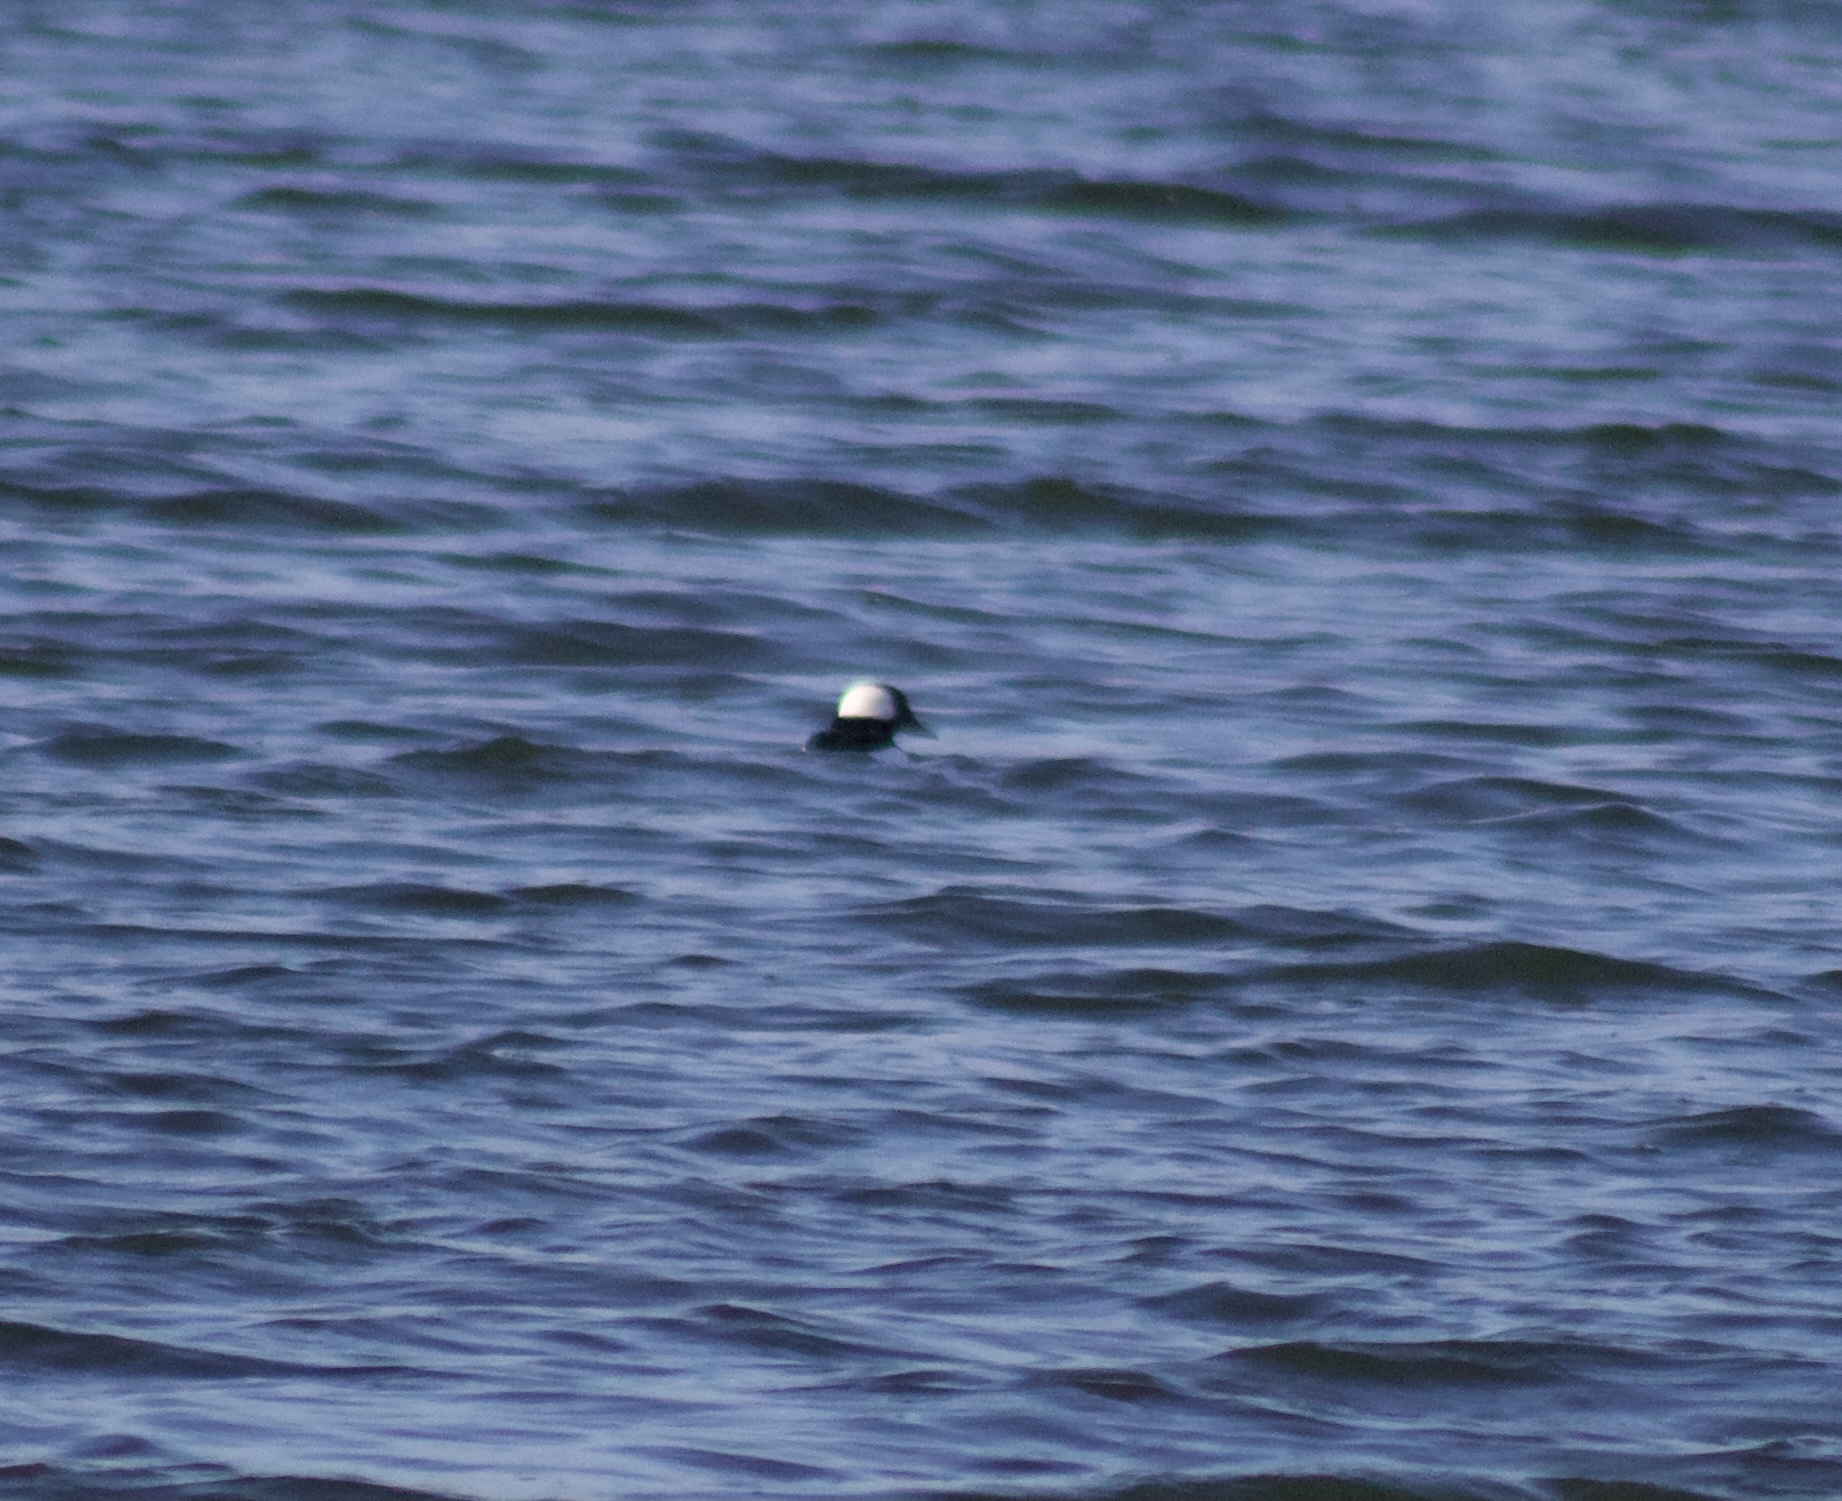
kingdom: Animalia
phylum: Chordata
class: Aves
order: Anseriformes
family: Anatidae
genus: Bucephala
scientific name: Bucephala albeola
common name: Bufflehead
